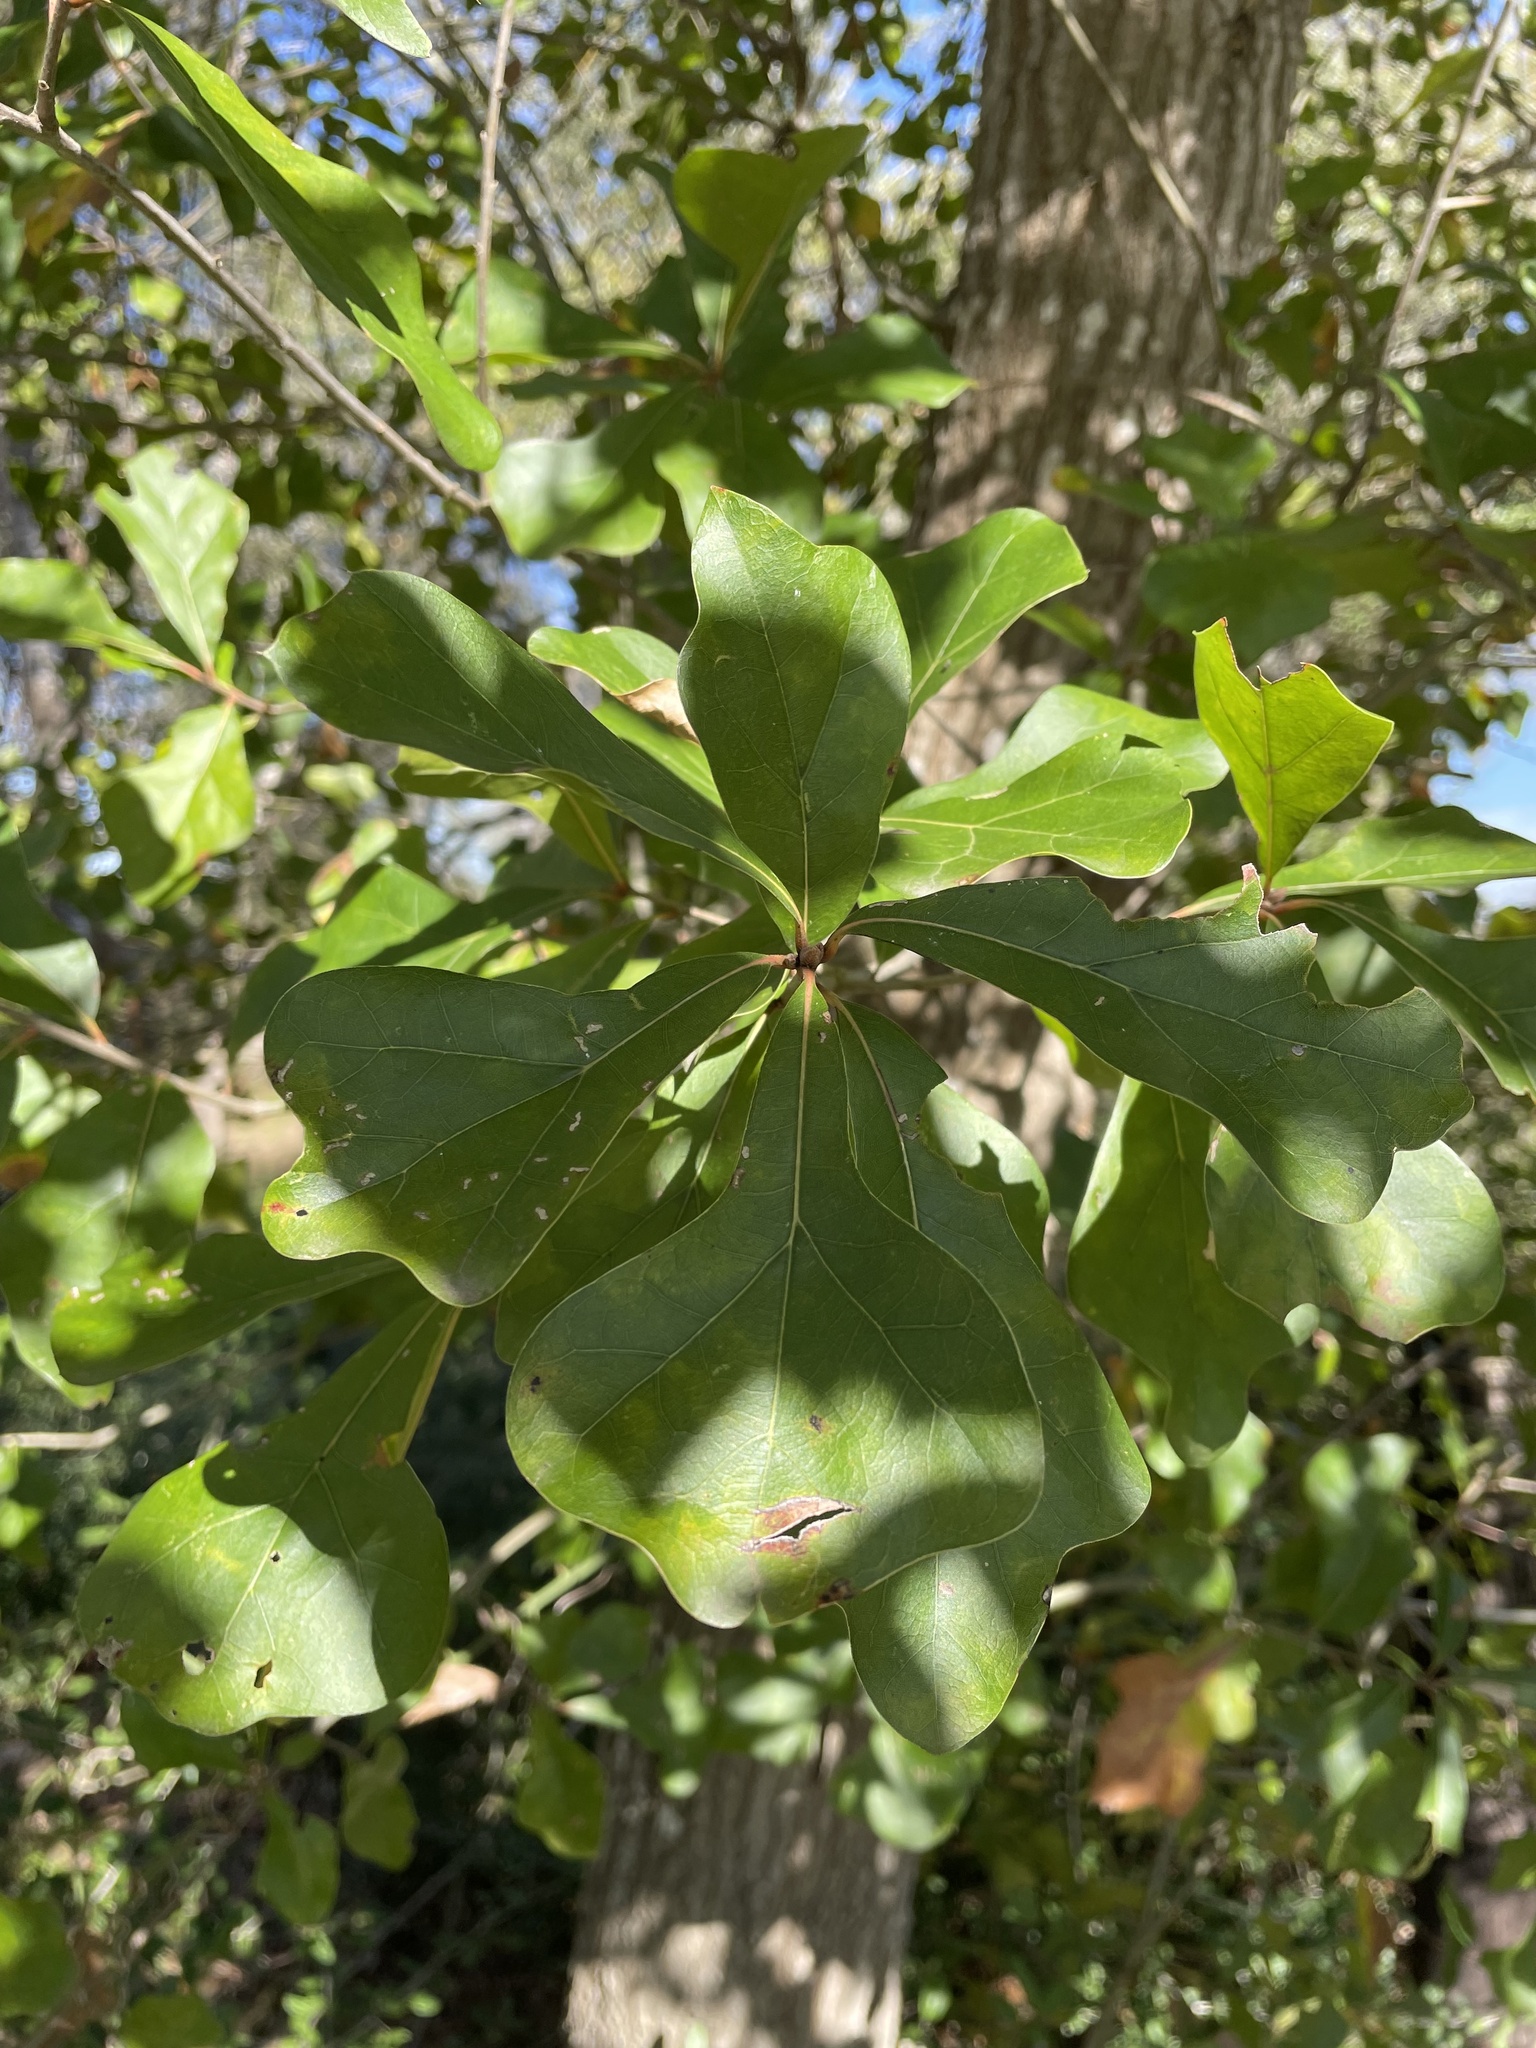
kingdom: Plantae
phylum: Tracheophyta
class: Magnoliopsida
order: Fagales
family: Fagaceae
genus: Quercus
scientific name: Quercus nigra
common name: Water oak
